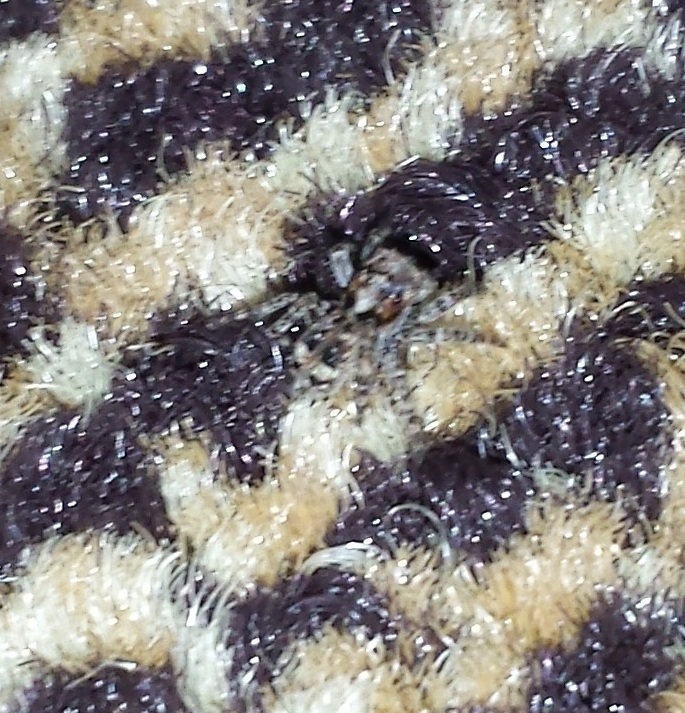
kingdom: Animalia
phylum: Arthropoda
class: Arachnida
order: Araneae
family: Salticidae
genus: Attulus
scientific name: Attulus fasciger
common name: Asiatic wall jumping spider
